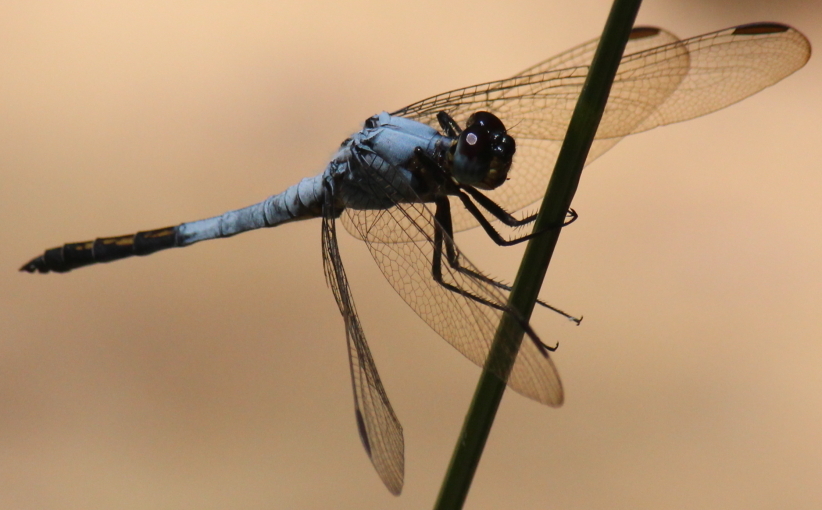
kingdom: Animalia
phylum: Arthropoda
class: Insecta
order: Odonata
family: Libellulidae
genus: Nesciothemis
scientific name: Nesciothemis farinosa
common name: Eastern blacktail
